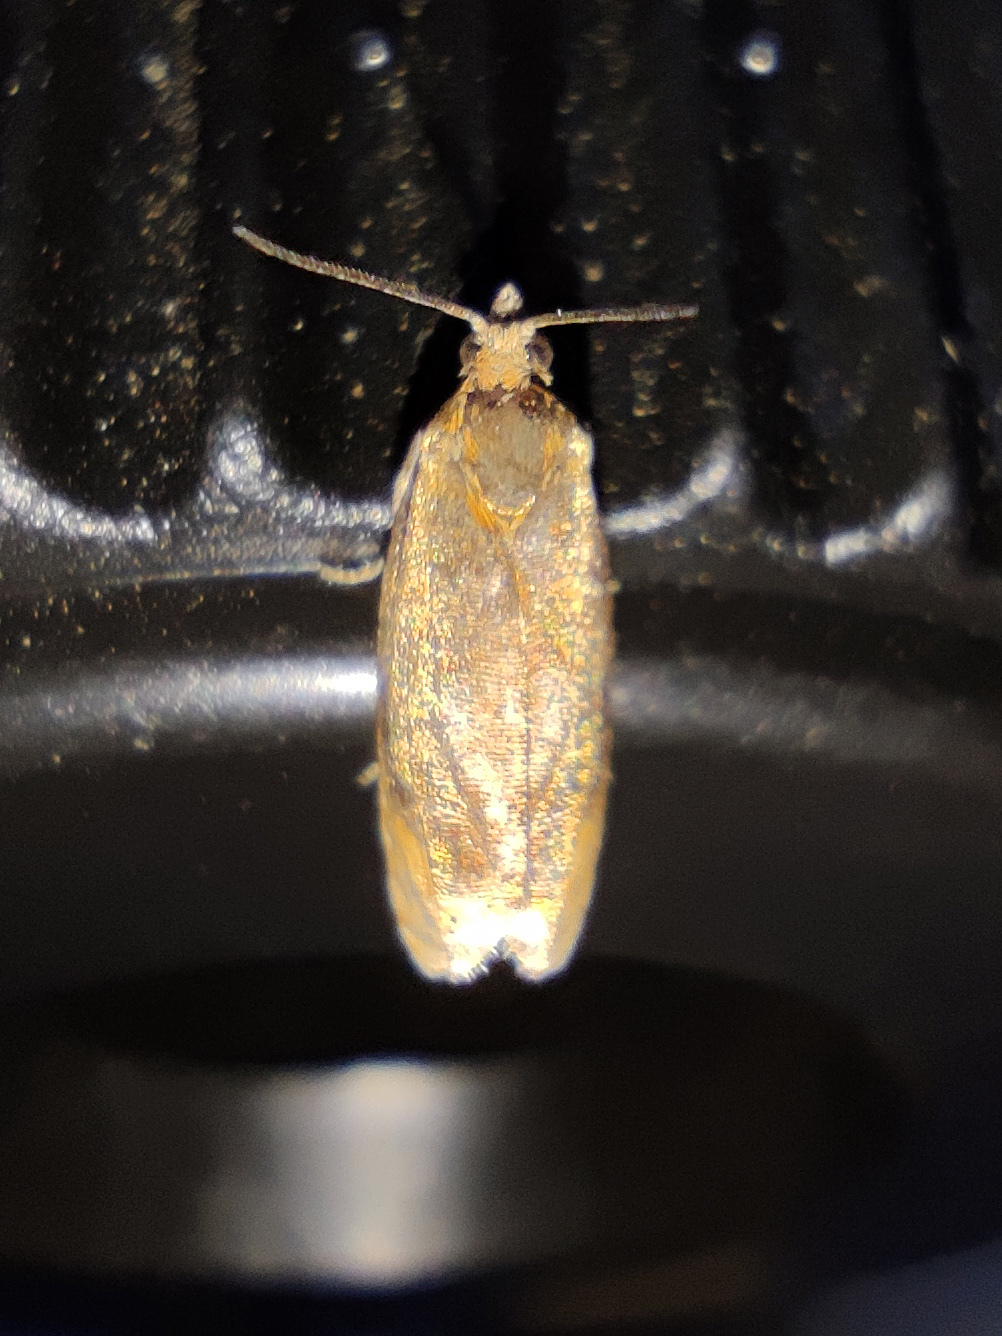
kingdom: Animalia
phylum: Arthropoda
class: Insecta
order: Lepidoptera
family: Tortricidae
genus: Eucosmomorpha
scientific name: Eucosmomorpha albersana
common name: Honeysuckle bell
